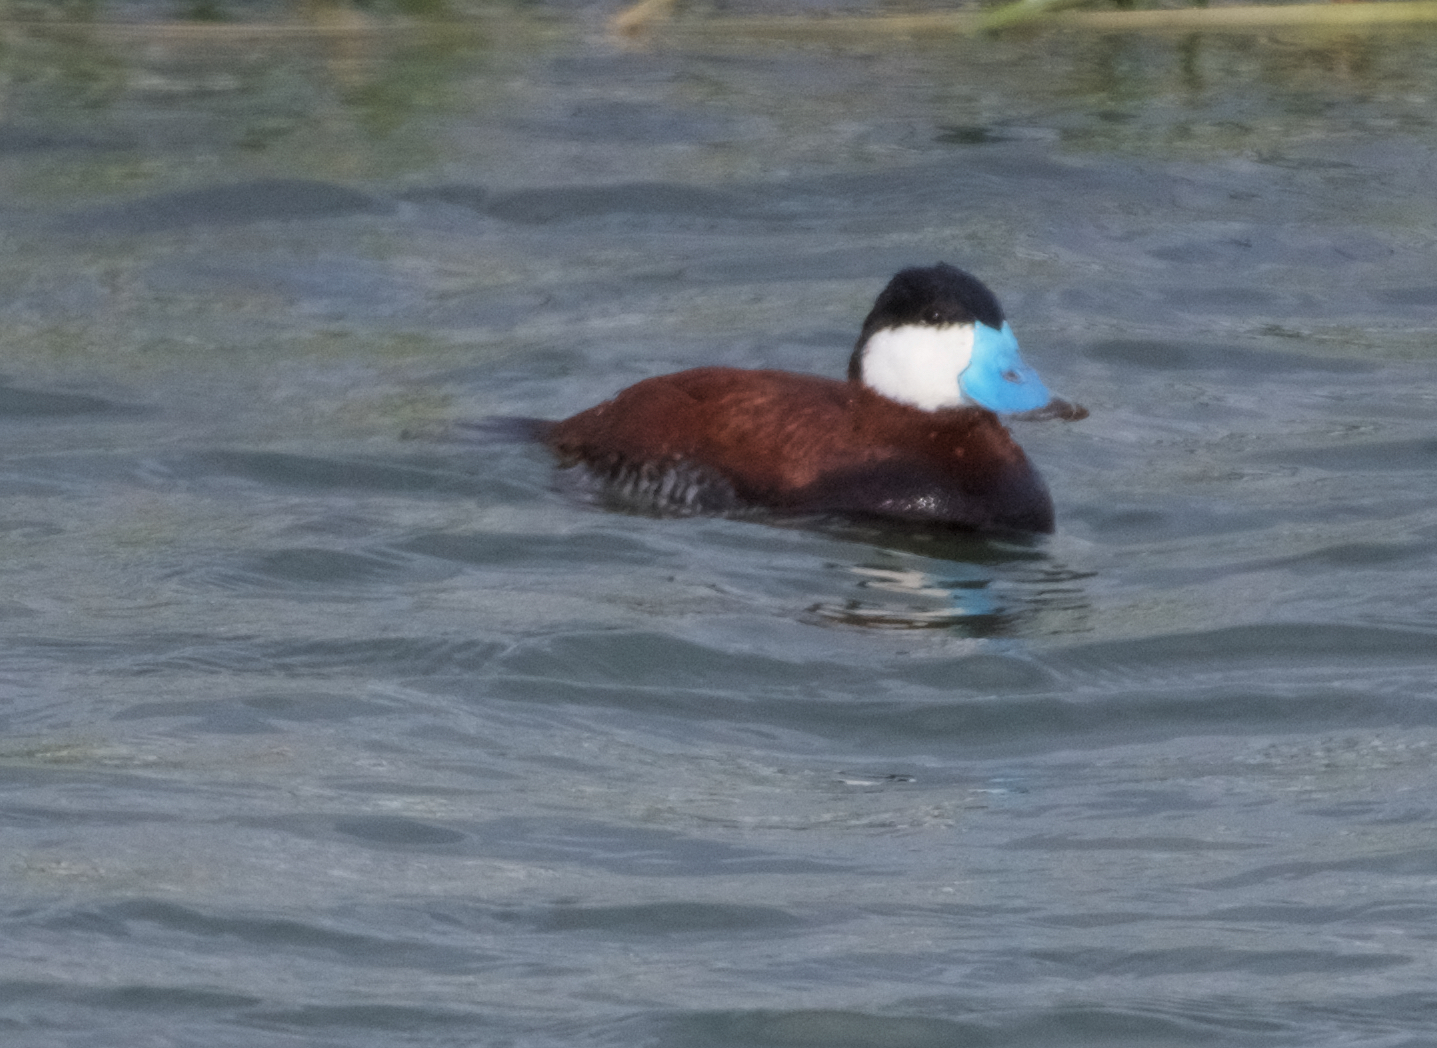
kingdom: Animalia
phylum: Chordata
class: Aves
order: Anseriformes
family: Anatidae
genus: Oxyura
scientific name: Oxyura jamaicensis
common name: Ruddy duck
